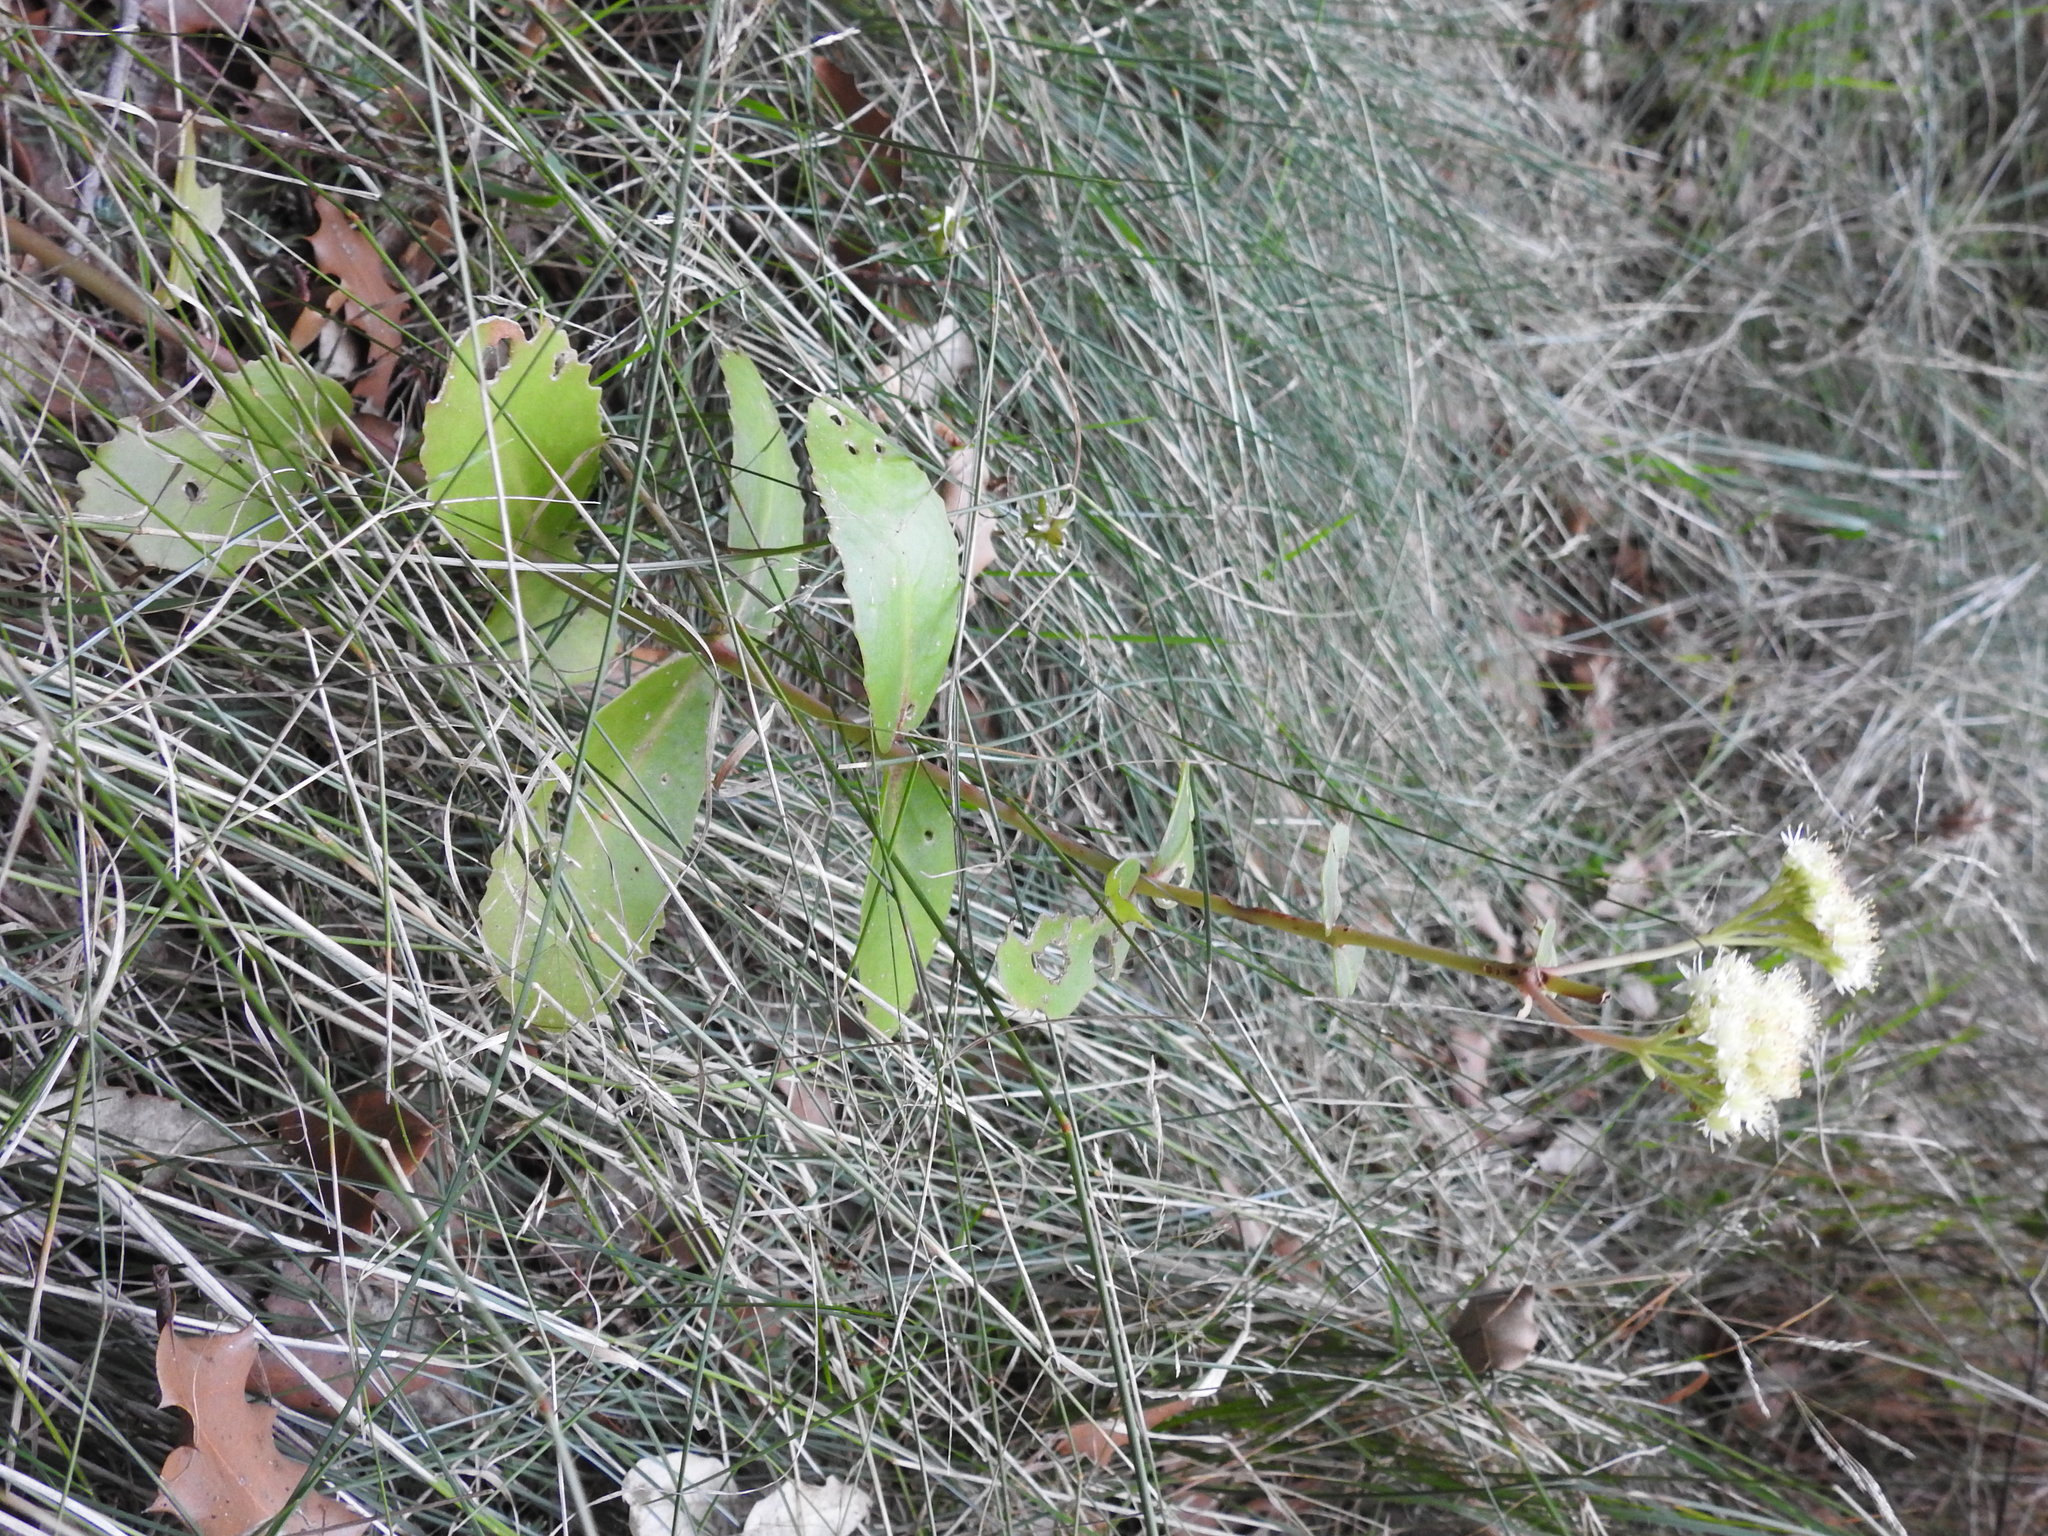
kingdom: Plantae
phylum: Tracheophyta
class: Magnoliopsida
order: Saxifragales
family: Crassulaceae
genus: Hylotelephium
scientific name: Hylotelephium maximum
